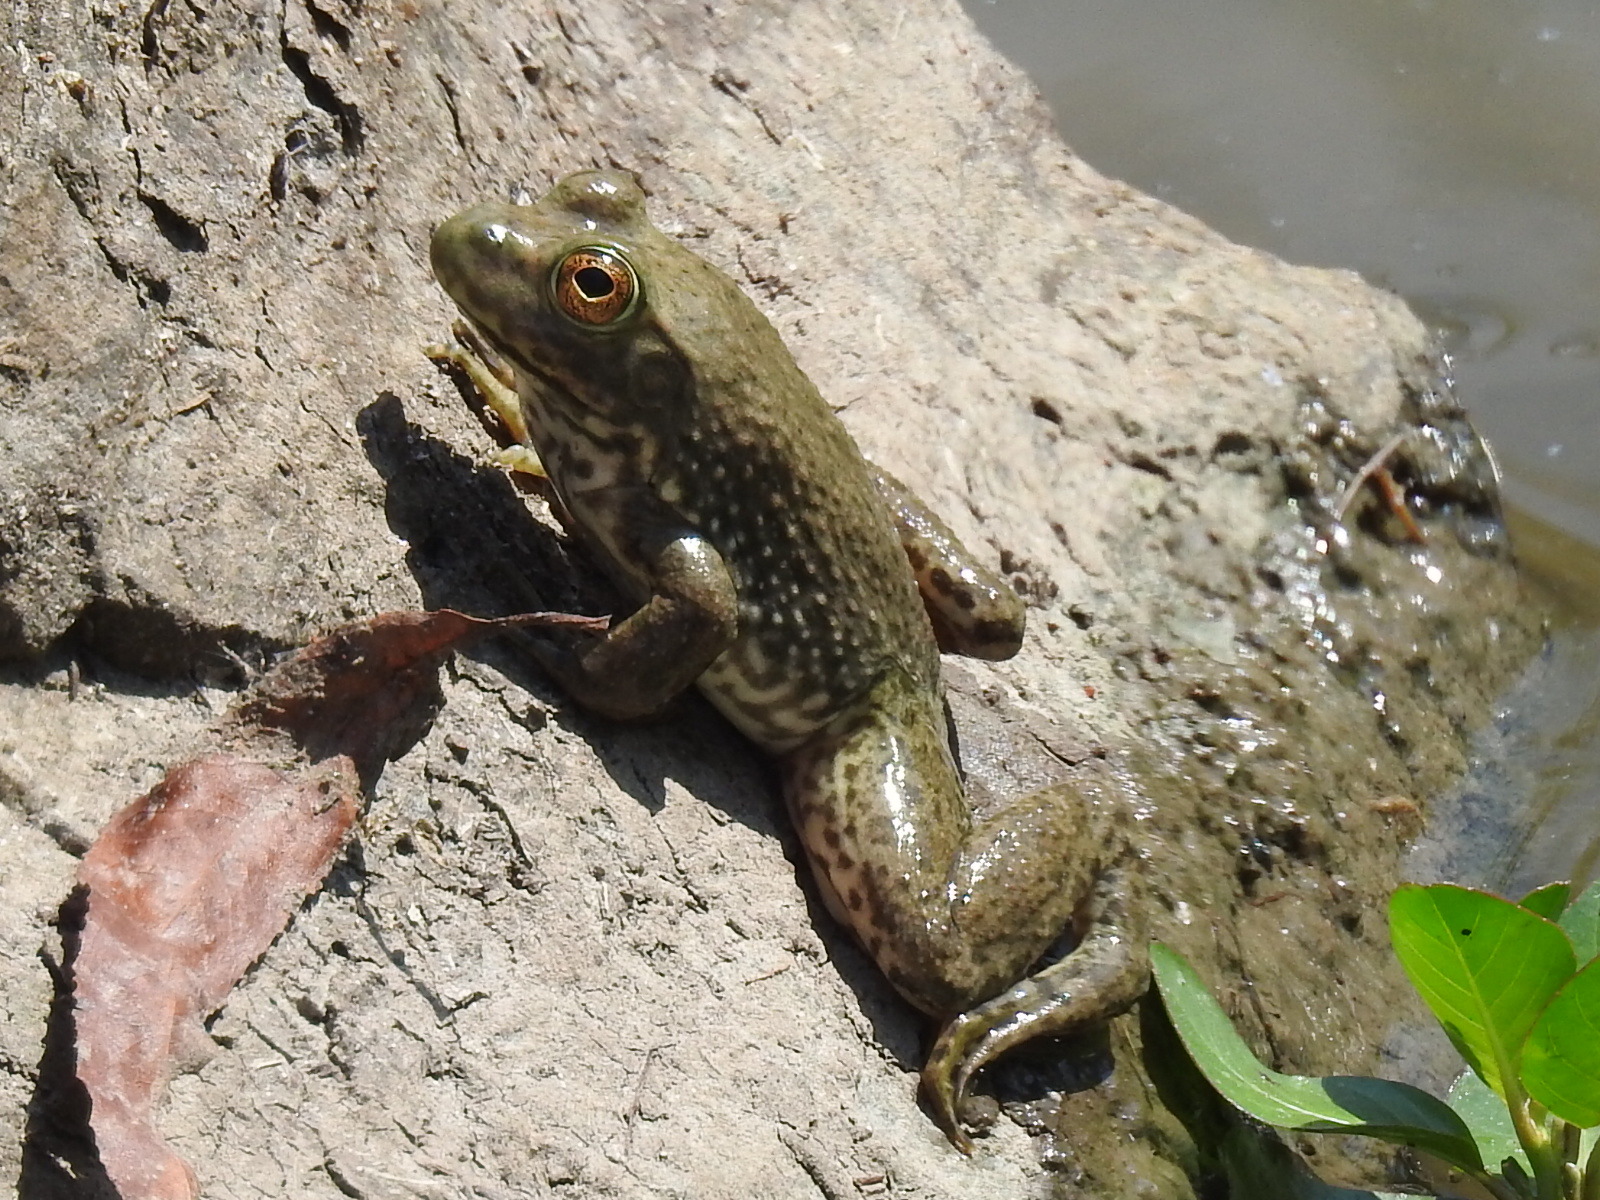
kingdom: Animalia
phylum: Chordata
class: Amphibia
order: Anura
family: Ranidae
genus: Lithobates
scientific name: Lithobates catesbeianus
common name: American bullfrog
